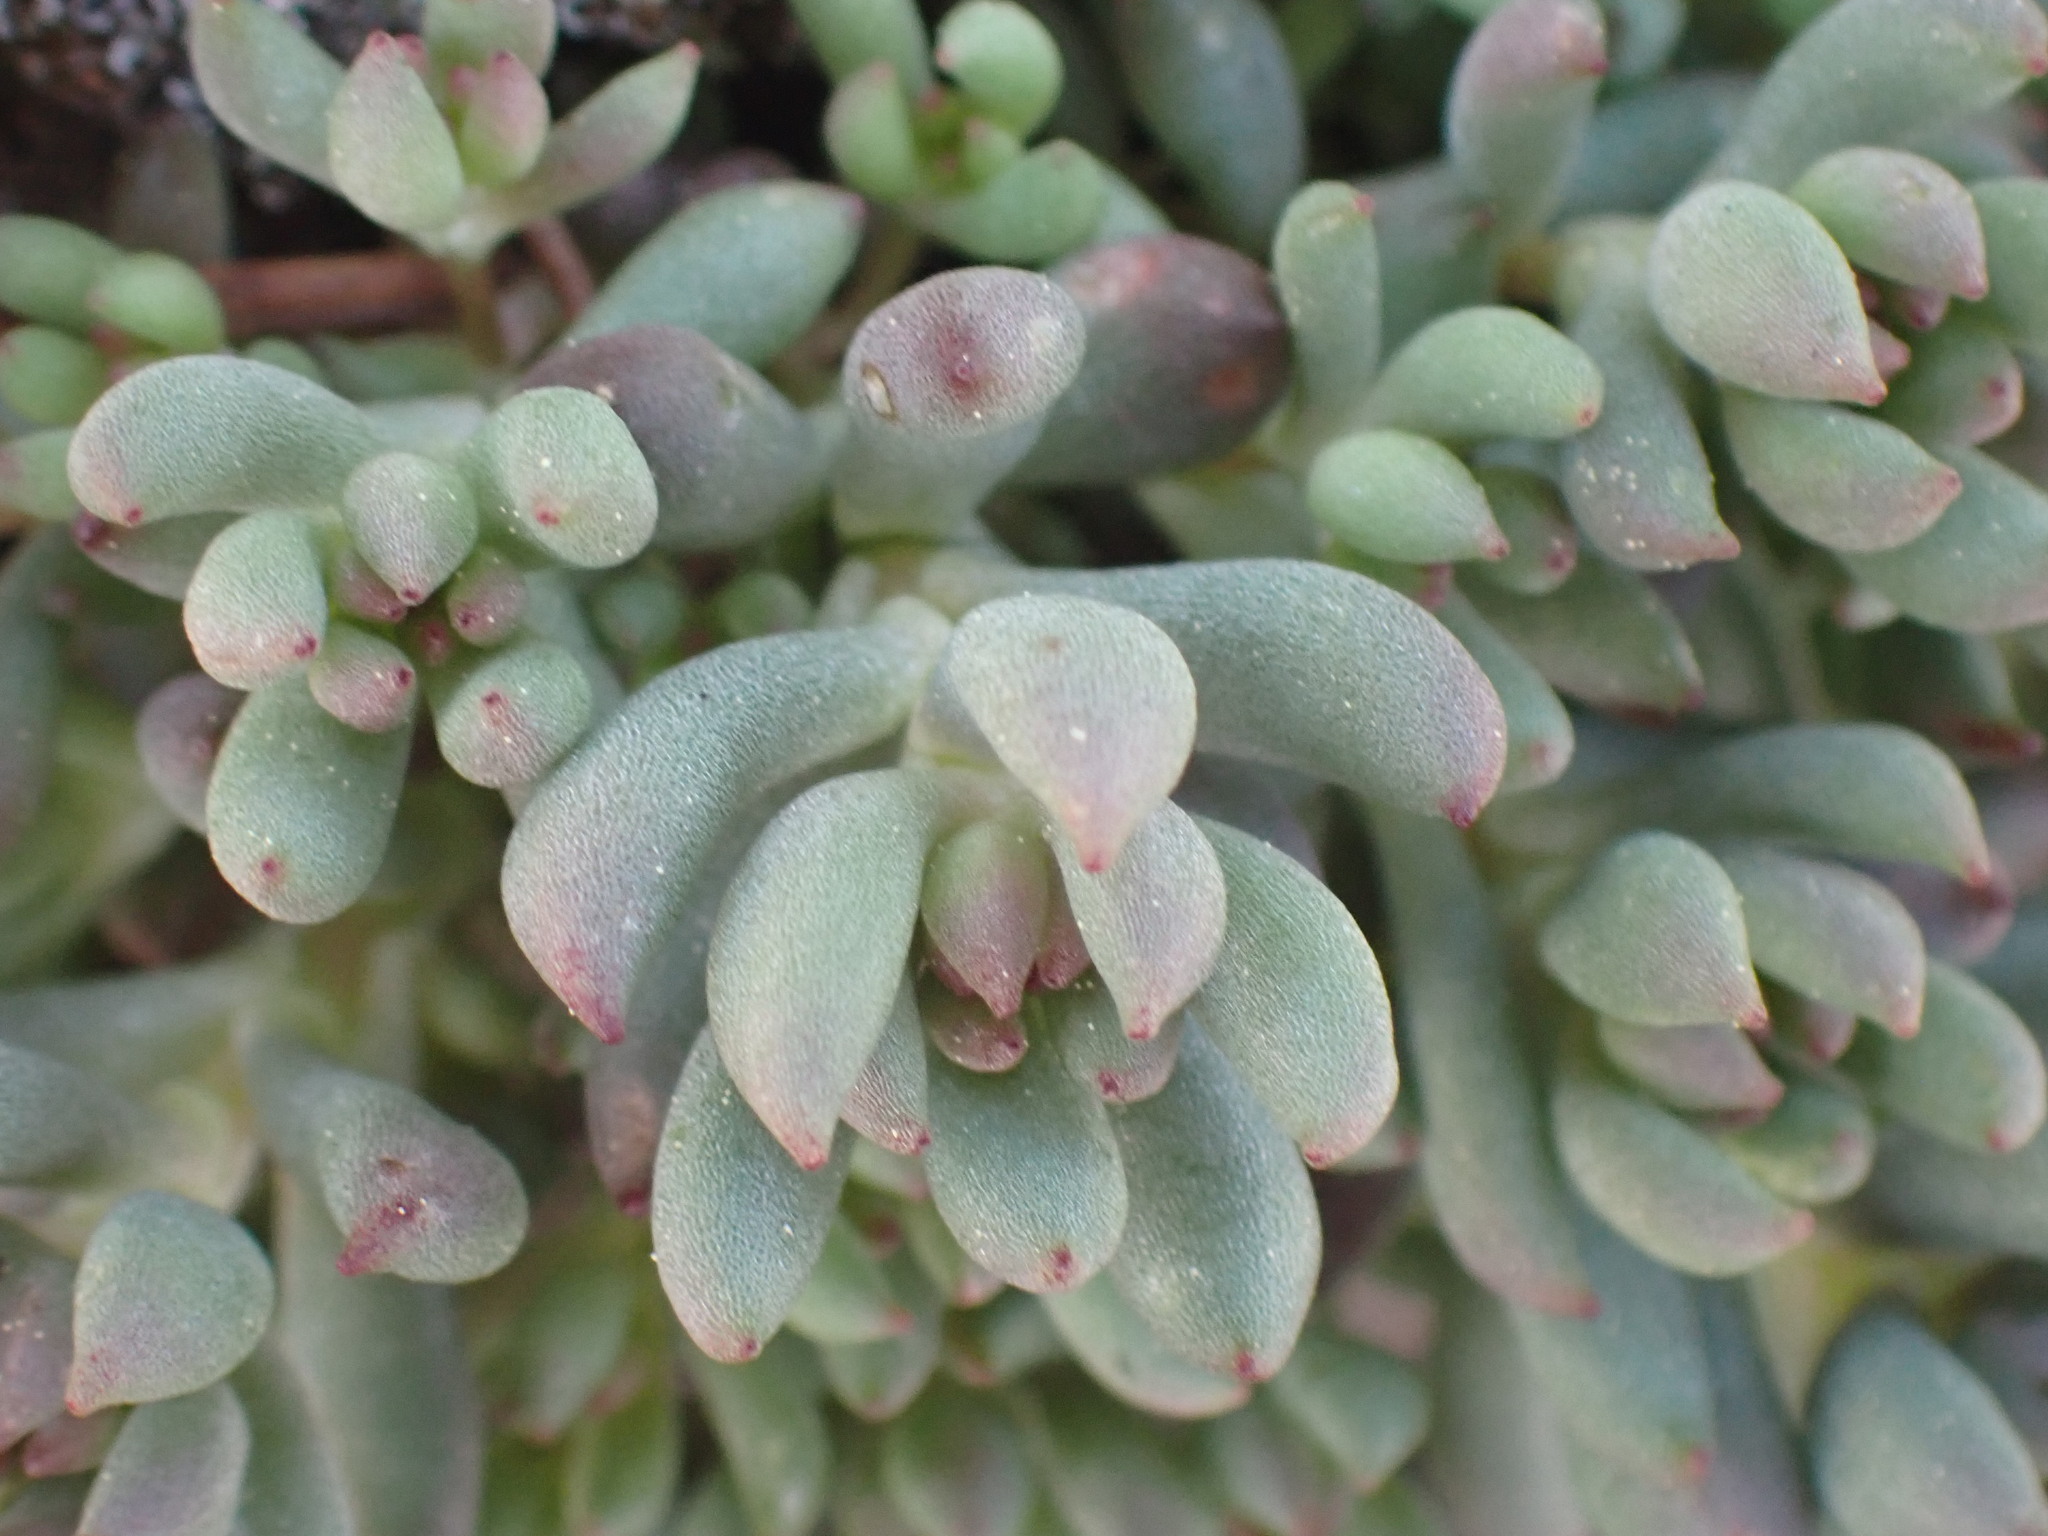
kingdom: Plantae
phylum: Tracheophyta
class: Magnoliopsida
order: Saxifragales
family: Crassulaceae
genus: Sedum
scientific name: Sedum lanceolatum
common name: Common stonecrop
